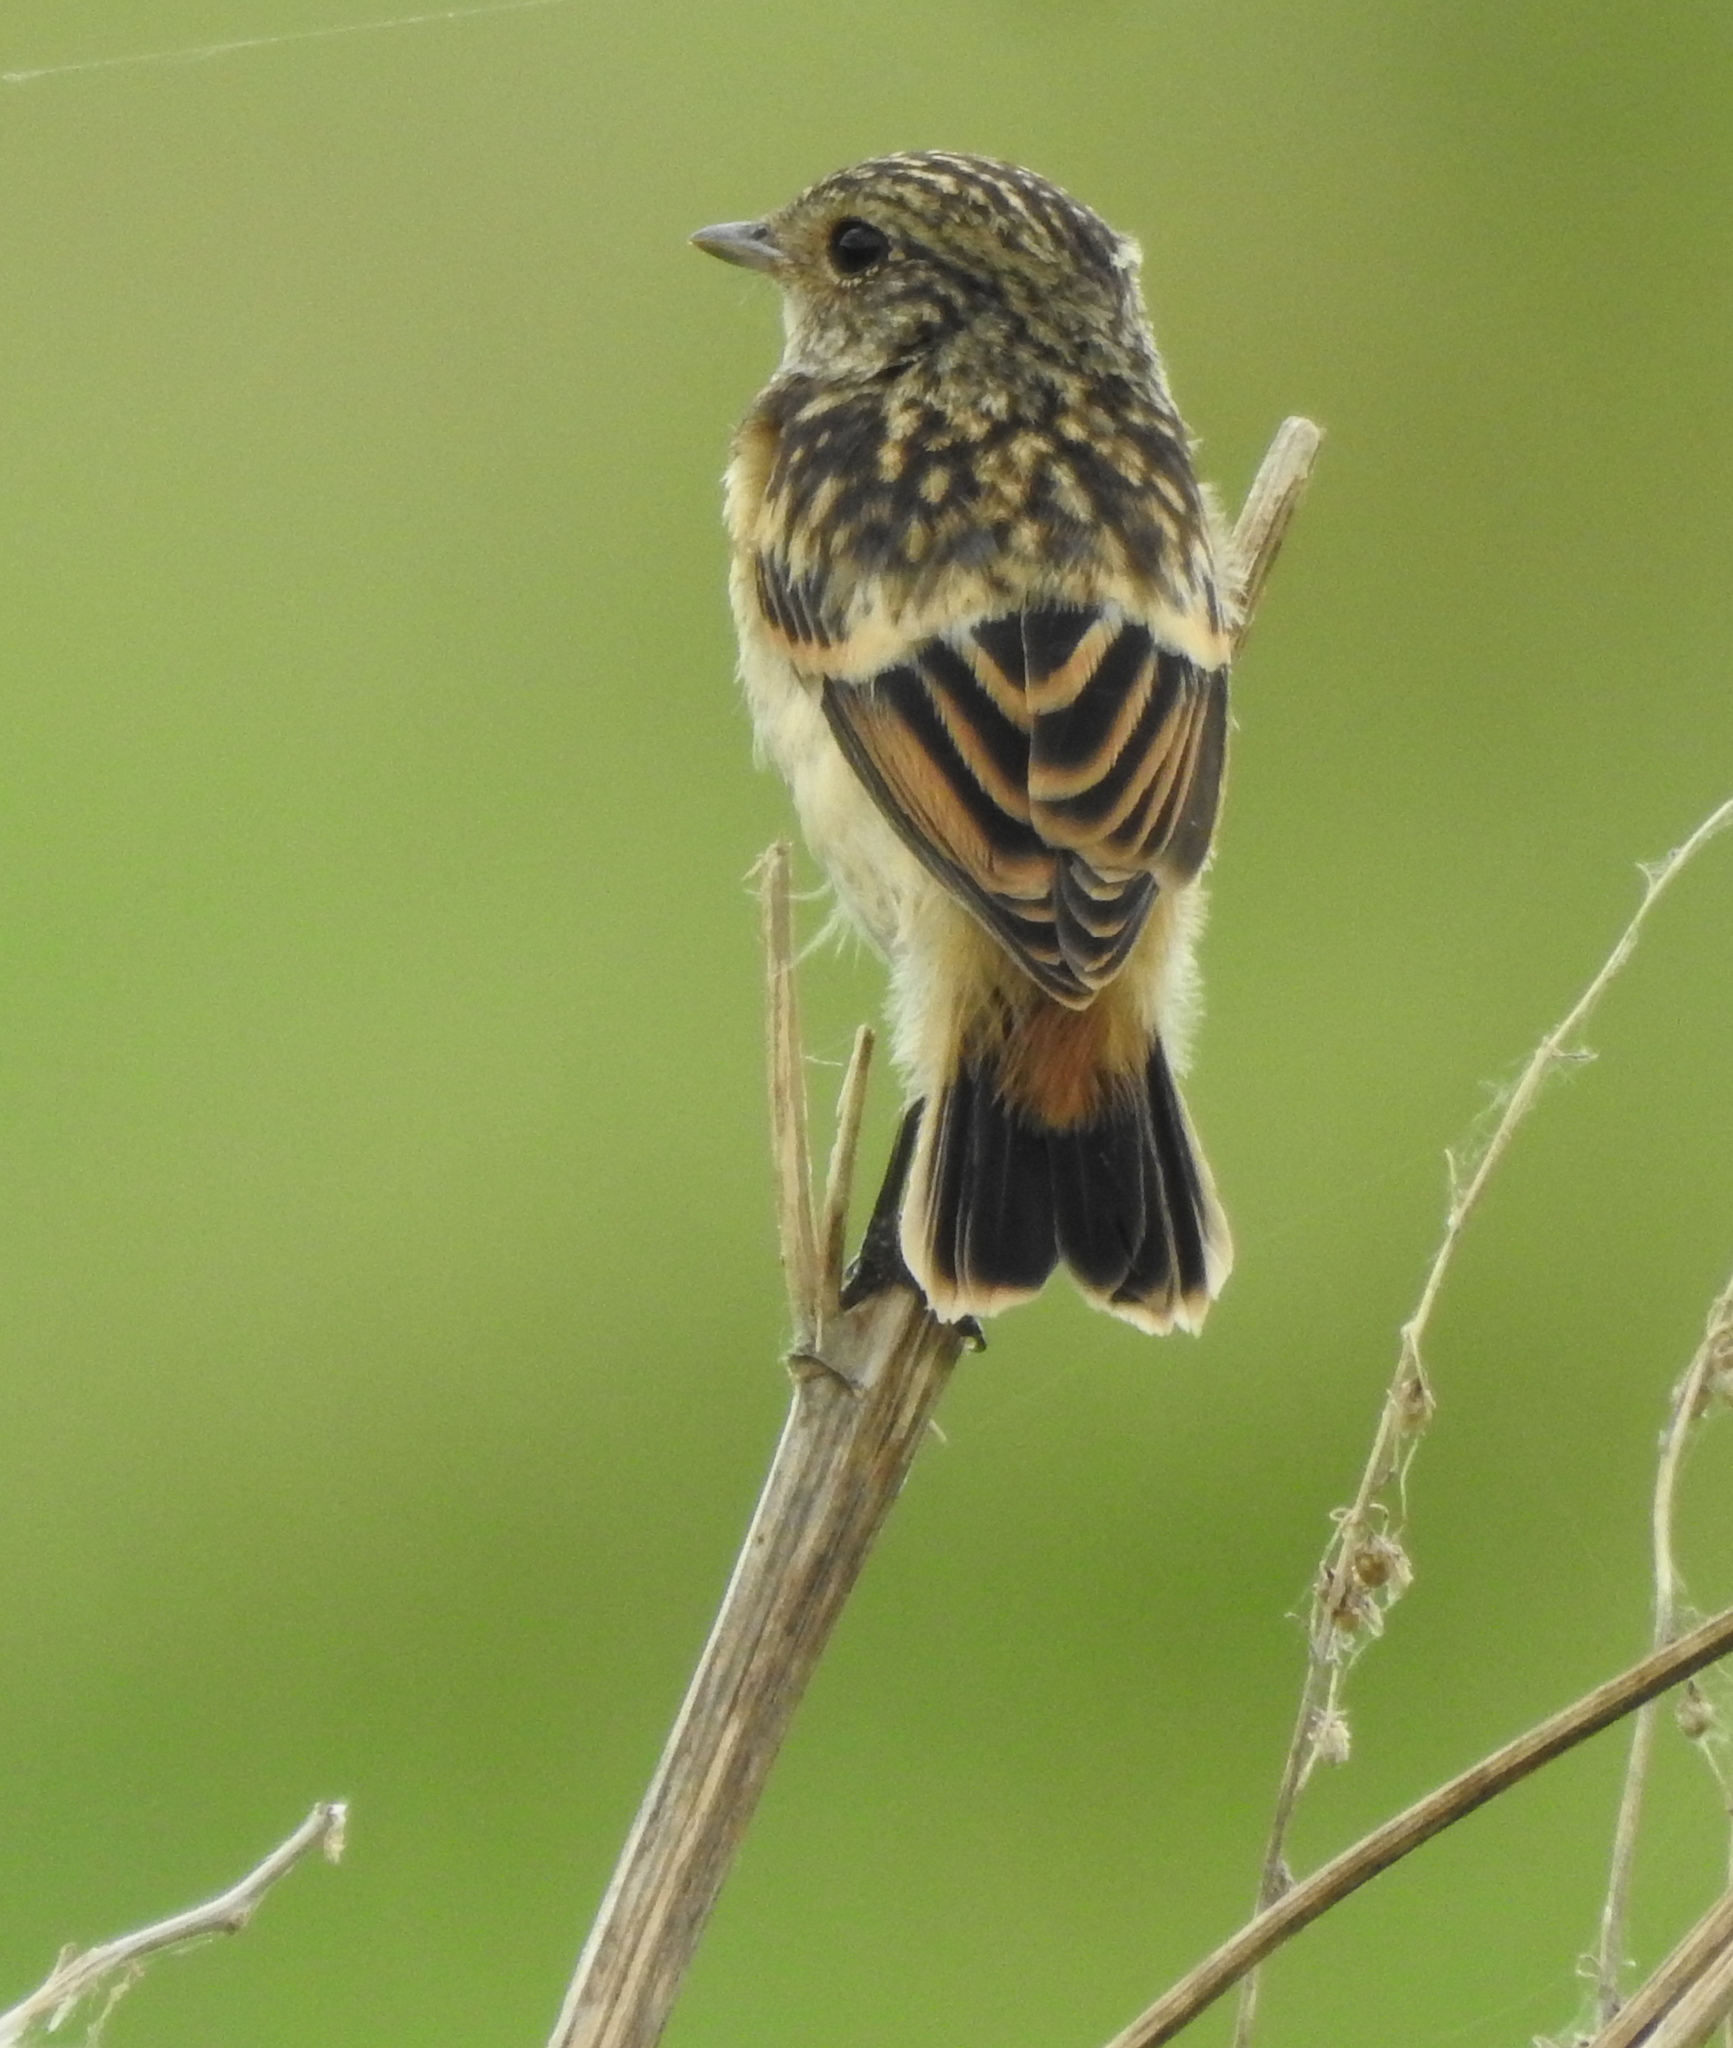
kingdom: Animalia
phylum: Chordata
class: Aves
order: Passeriformes
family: Muscicapidae
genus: Saxicola
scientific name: Saxicola maurus
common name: Siberian stonechat
